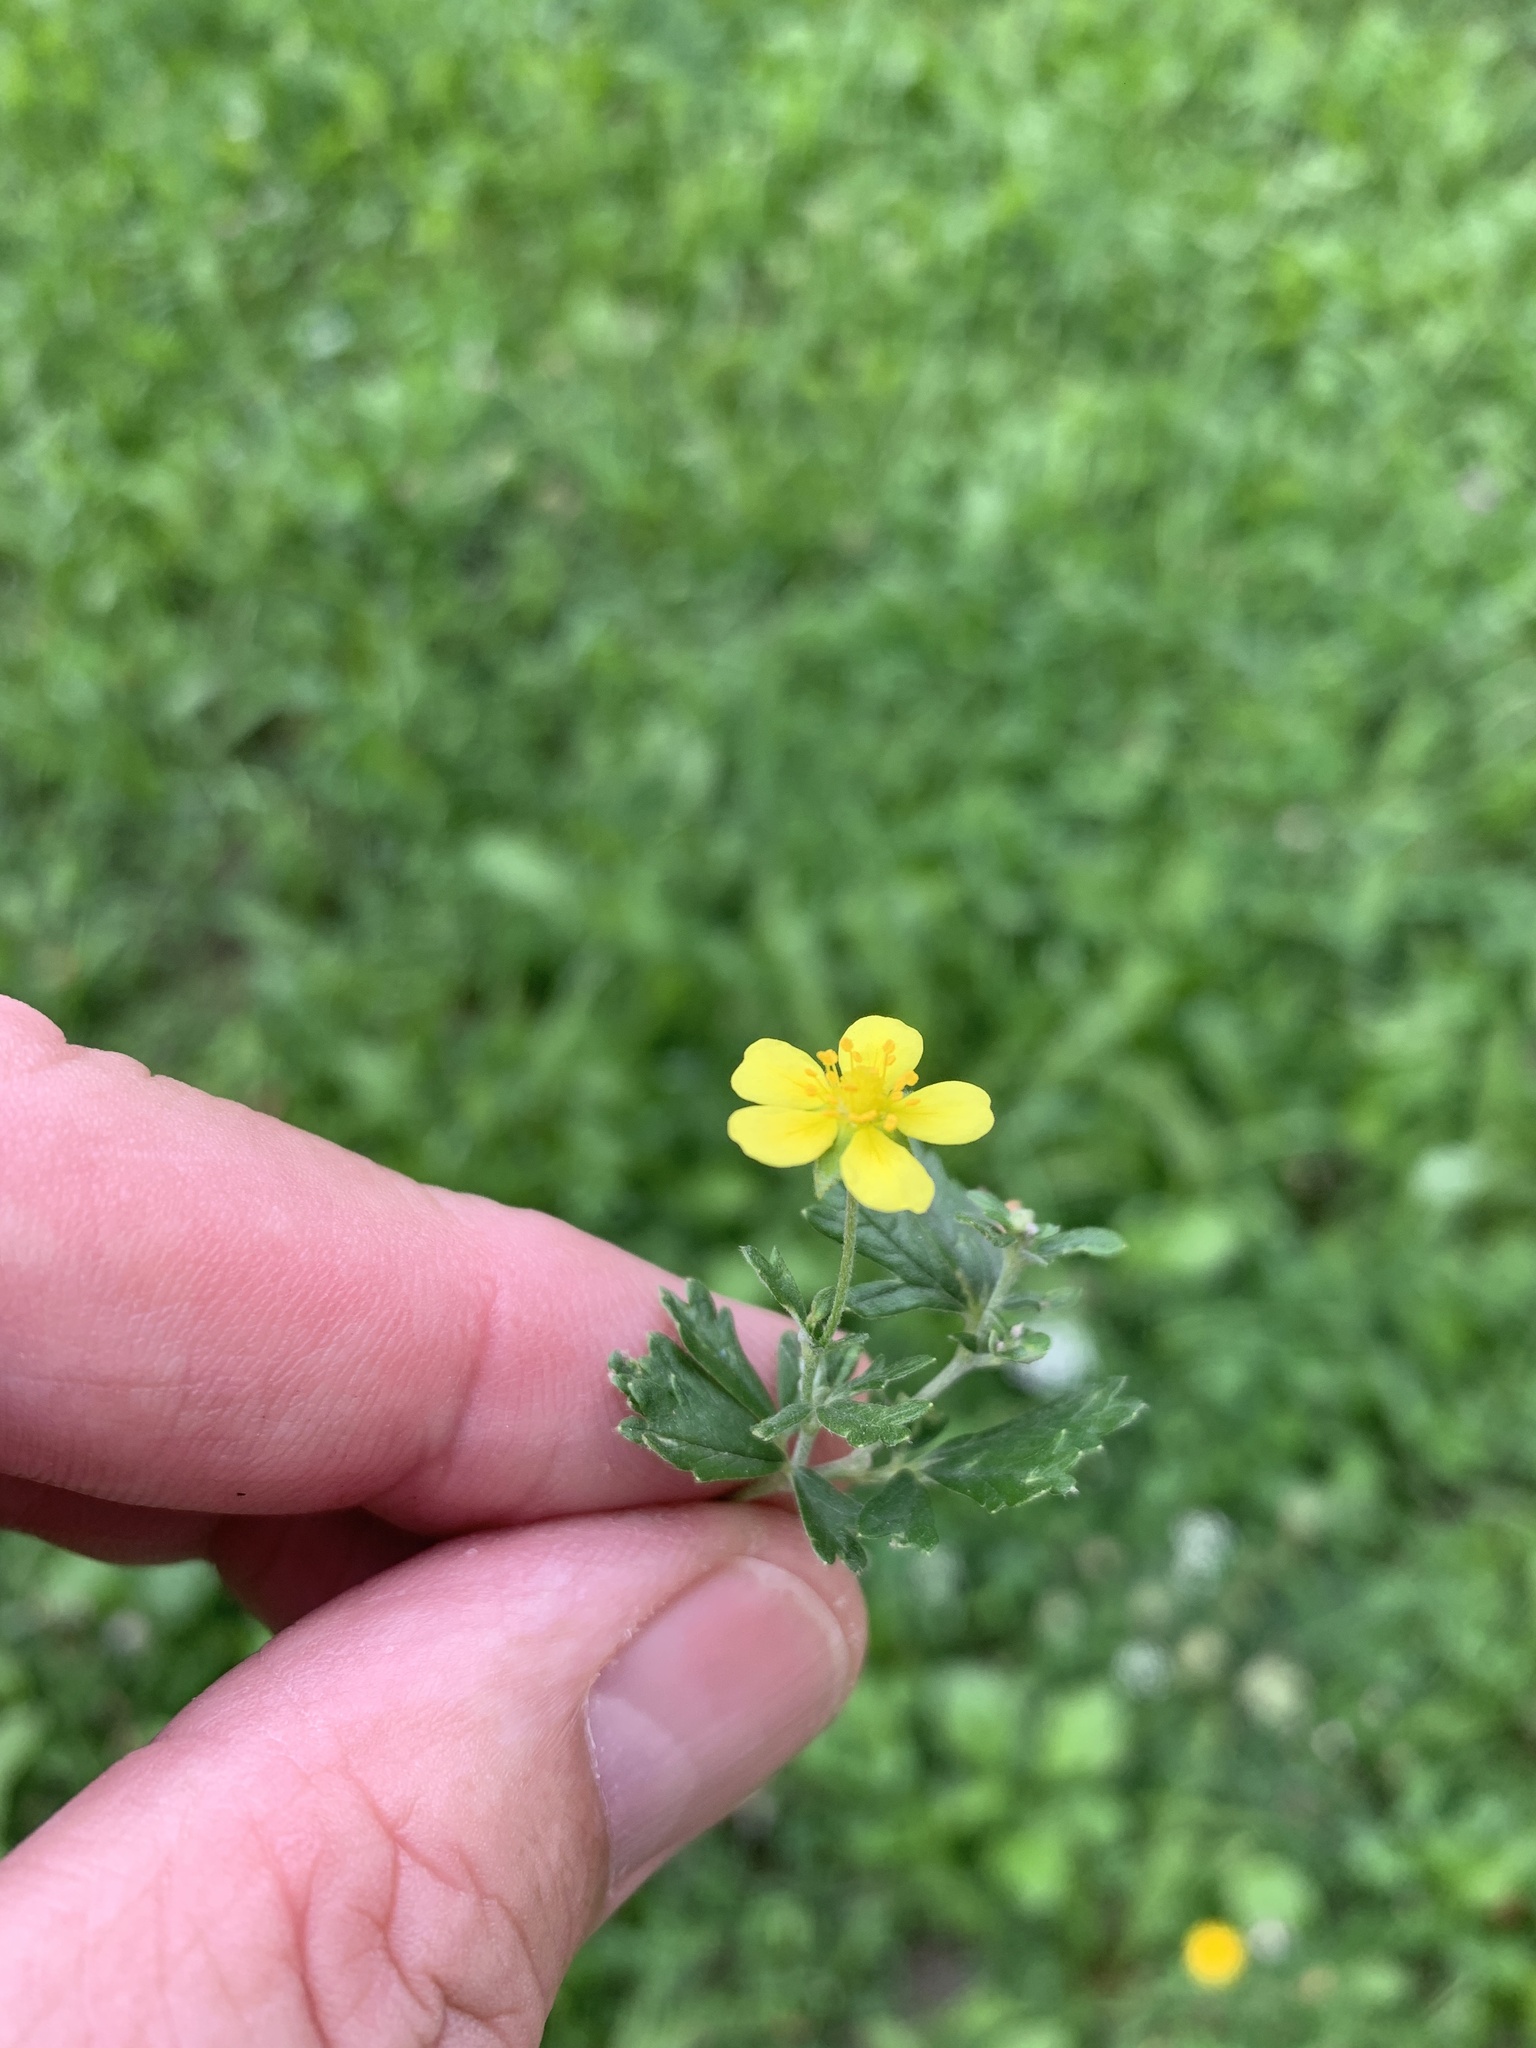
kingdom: Plantae
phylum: Tracheophyta
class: Magnoliopsida
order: Rosales
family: Rosaceae
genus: Potentilla
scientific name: Potentilla argentea
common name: Hoary cinquefoil
